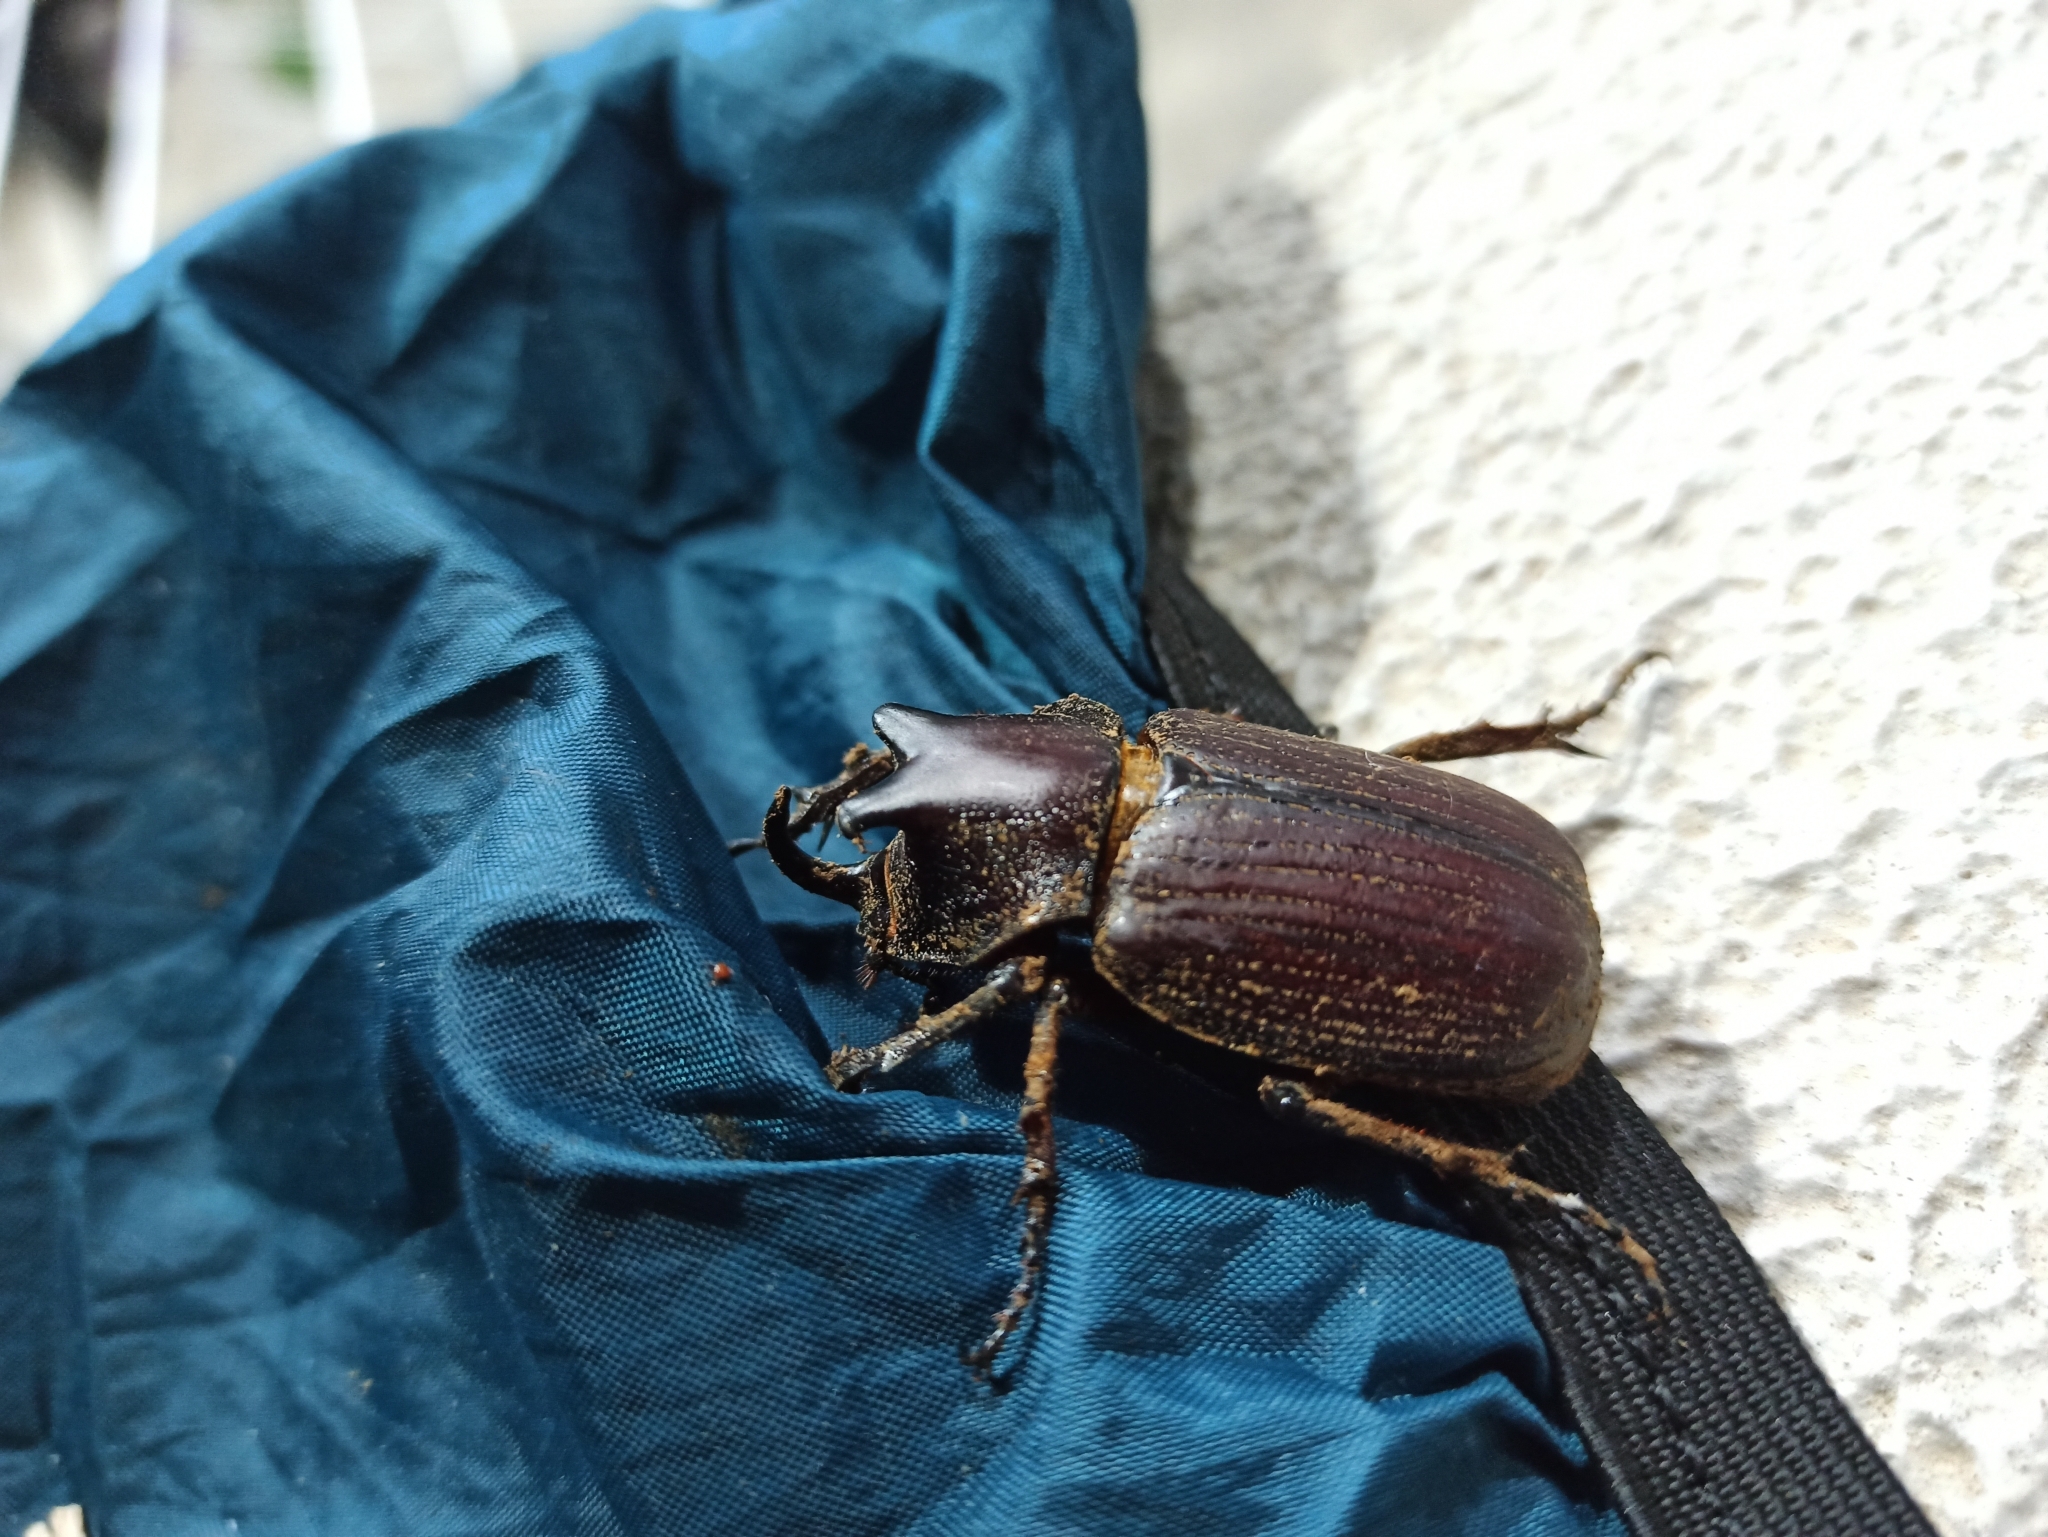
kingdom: Animalia
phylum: Arthropoda
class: Insecta
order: Coleoptera
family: Scarabaeidae
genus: Coelosis
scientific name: Coelosis biloba
